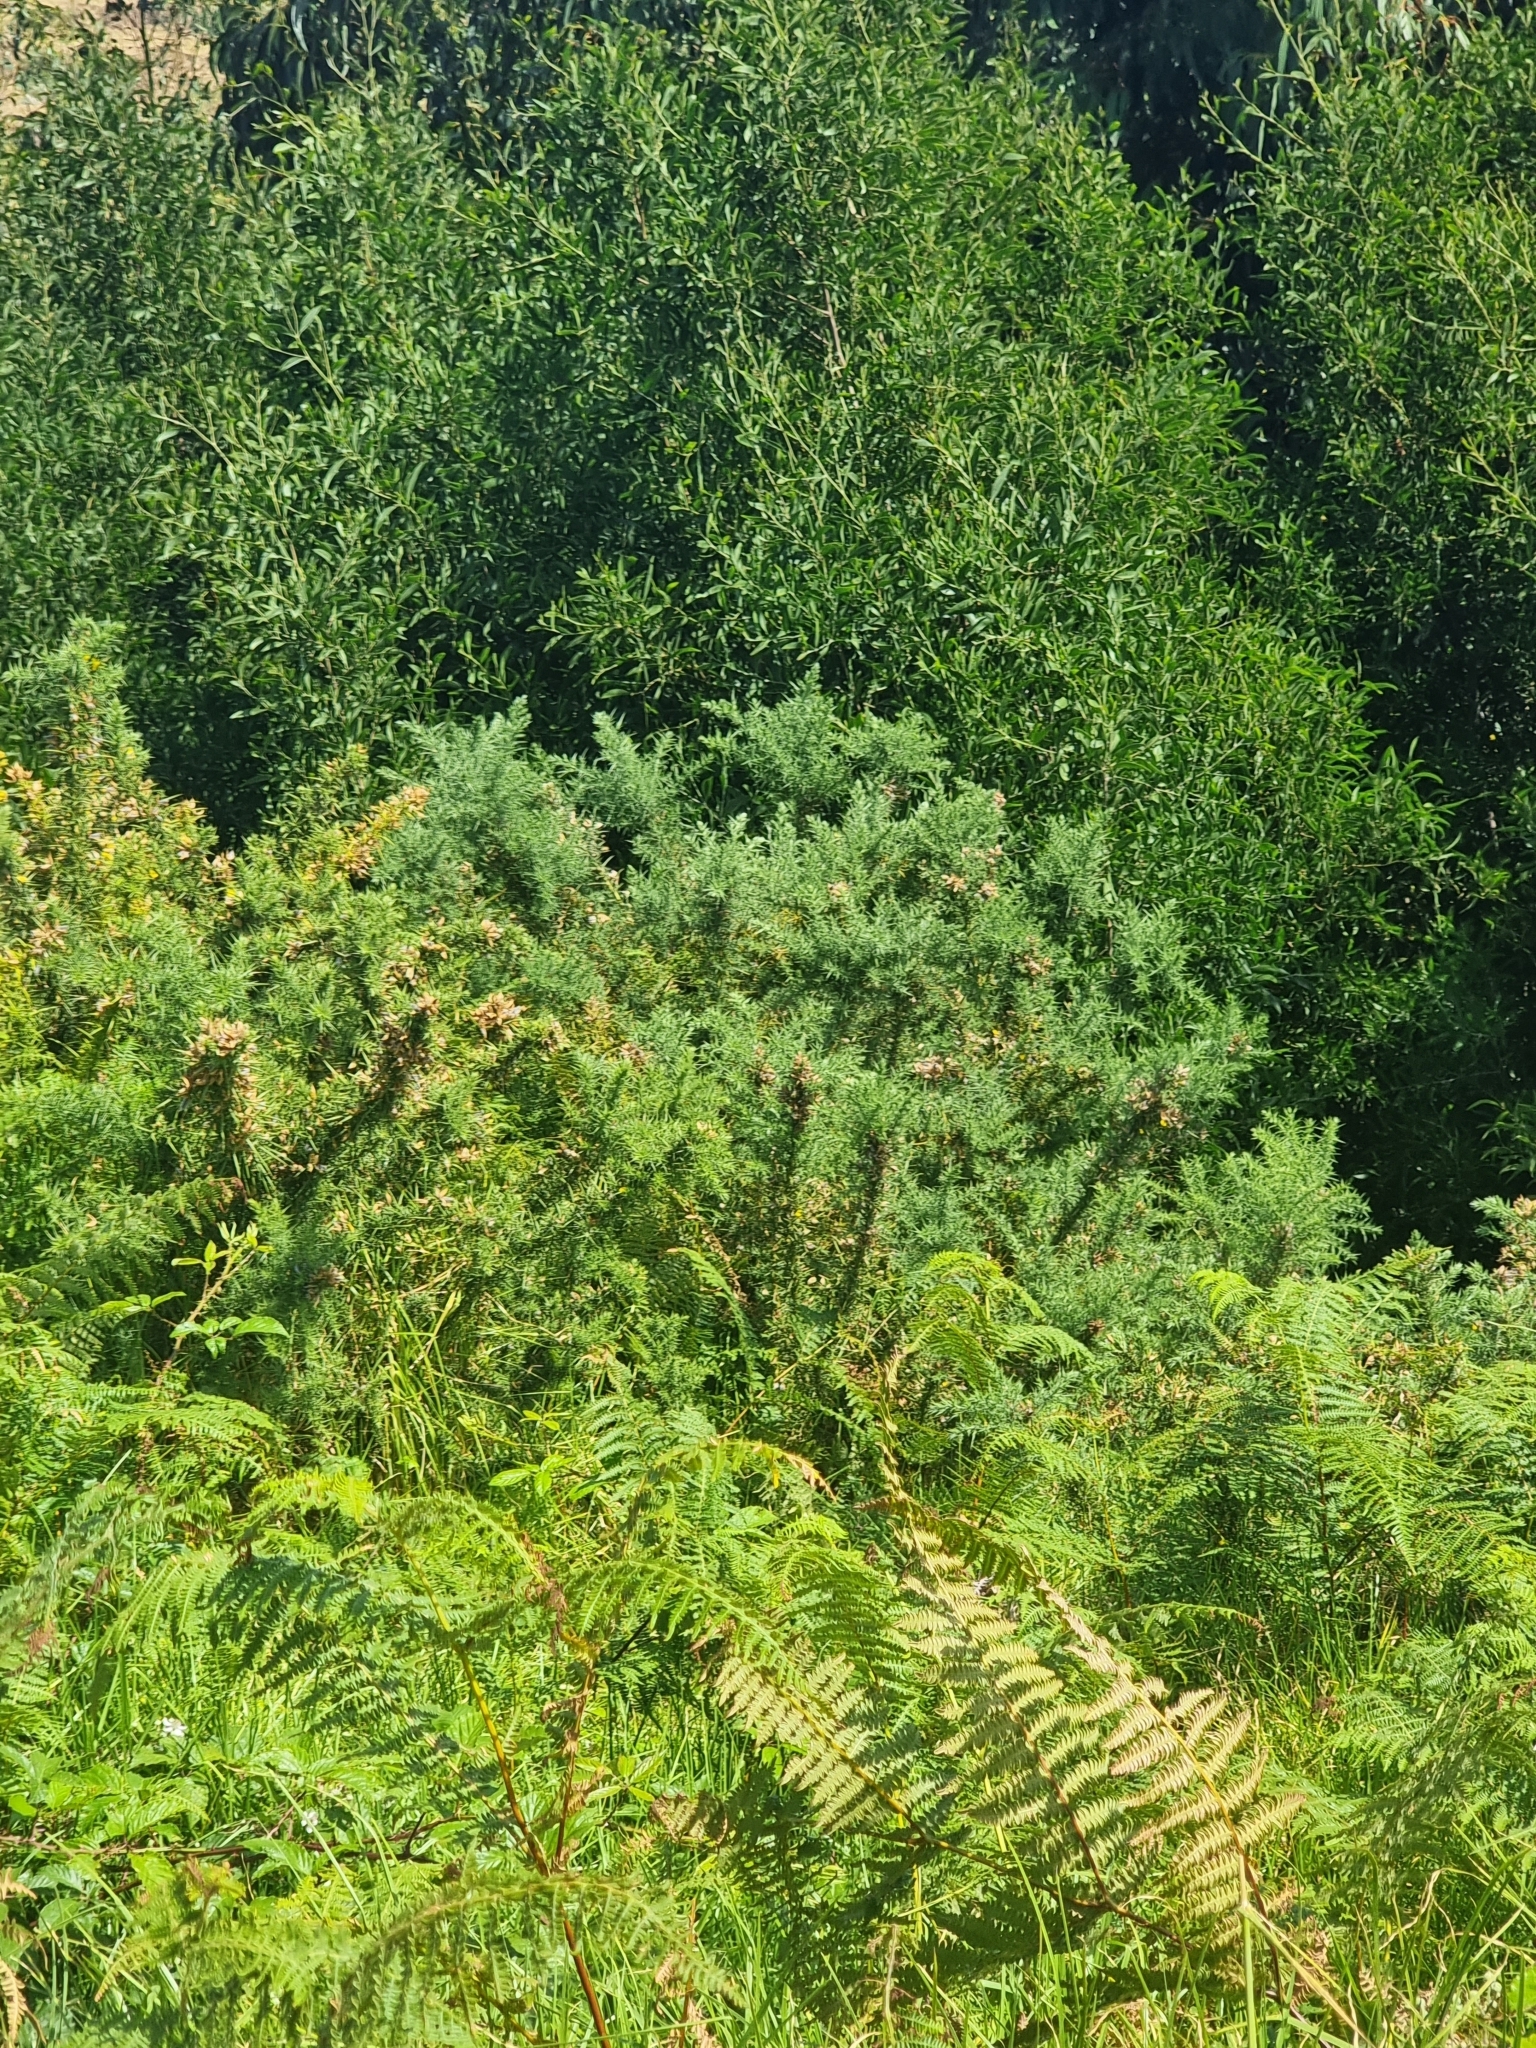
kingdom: Plantae
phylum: Tracheophyta
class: Magnoliopsida
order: Fabales
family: Fabaceae
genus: Ulex
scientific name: Ulex europaeus
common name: Common gorse
